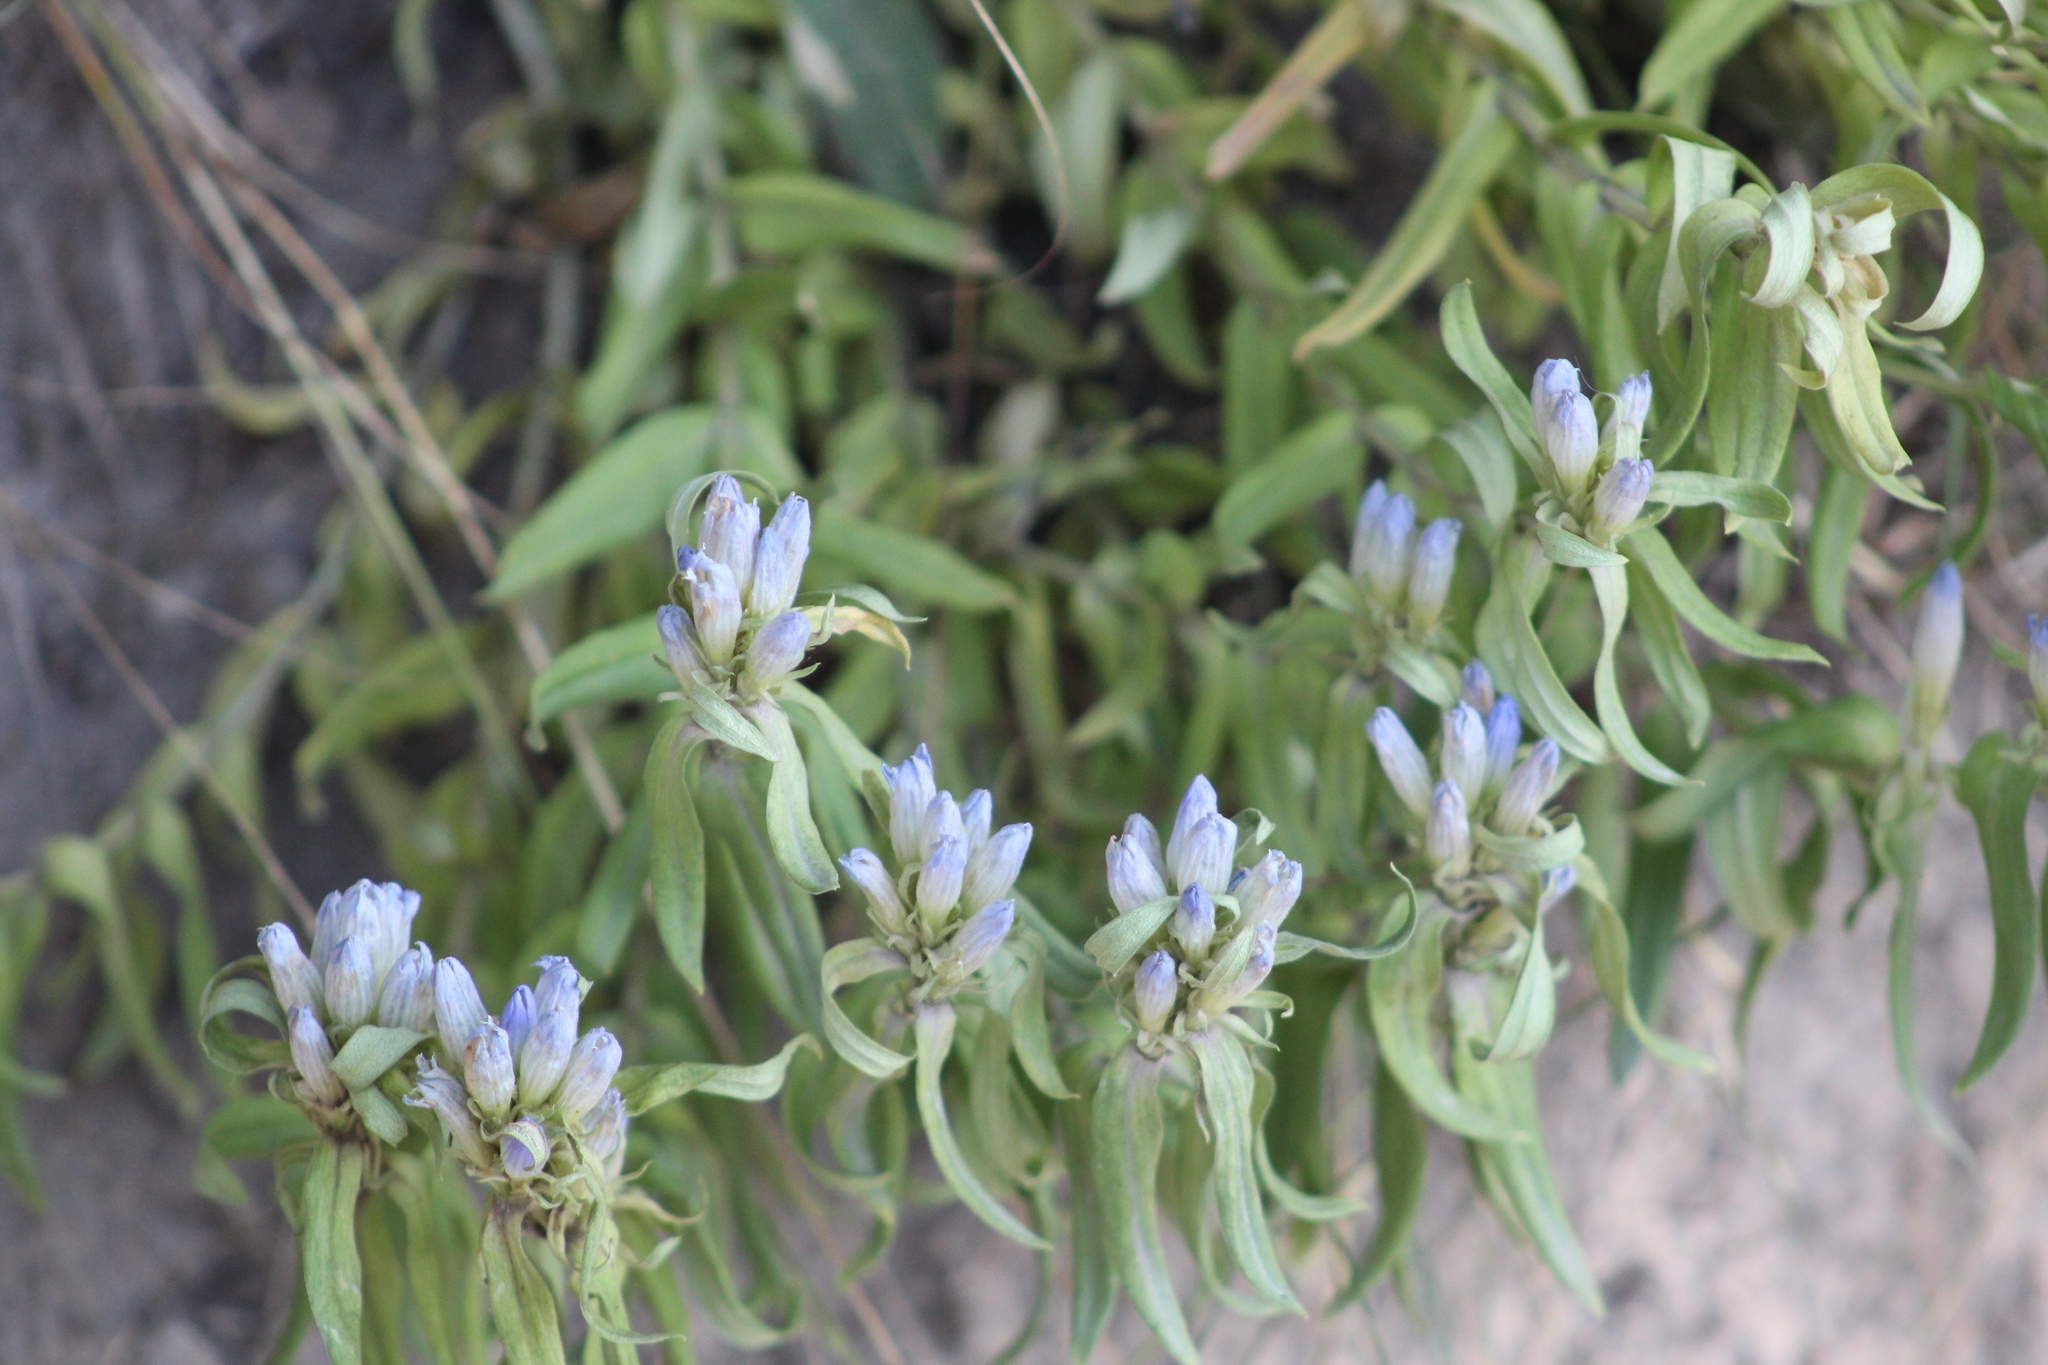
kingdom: Plantae
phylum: Tracheophyta
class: Magnoliopsida
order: Gentianales
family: Gentianaceae
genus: Gentiana
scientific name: Gentiana affinis
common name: Rocky mountain gentian
